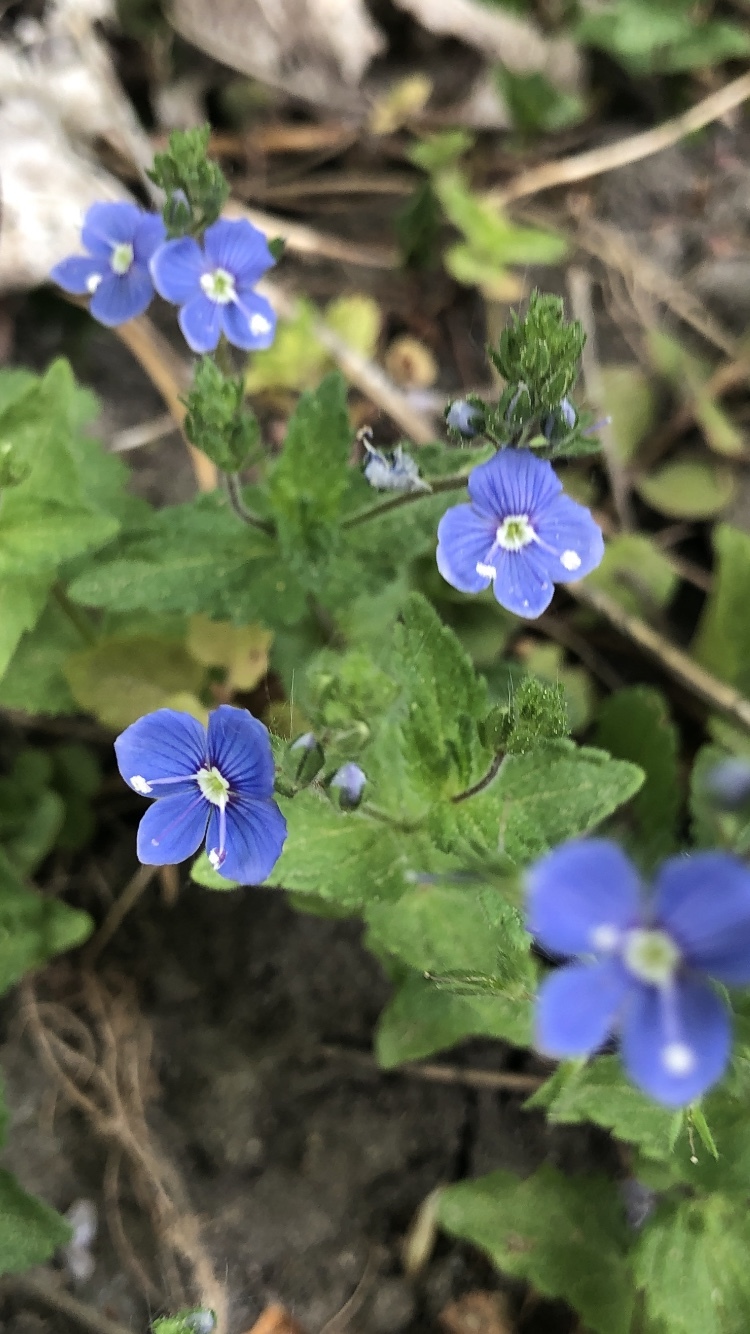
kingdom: Plantae
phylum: Tracheophyta
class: Magnoliopsida
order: Lamiales
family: Plantaginaceae
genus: Veronica
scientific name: Veronica chamaedrys
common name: Germander speedwell
